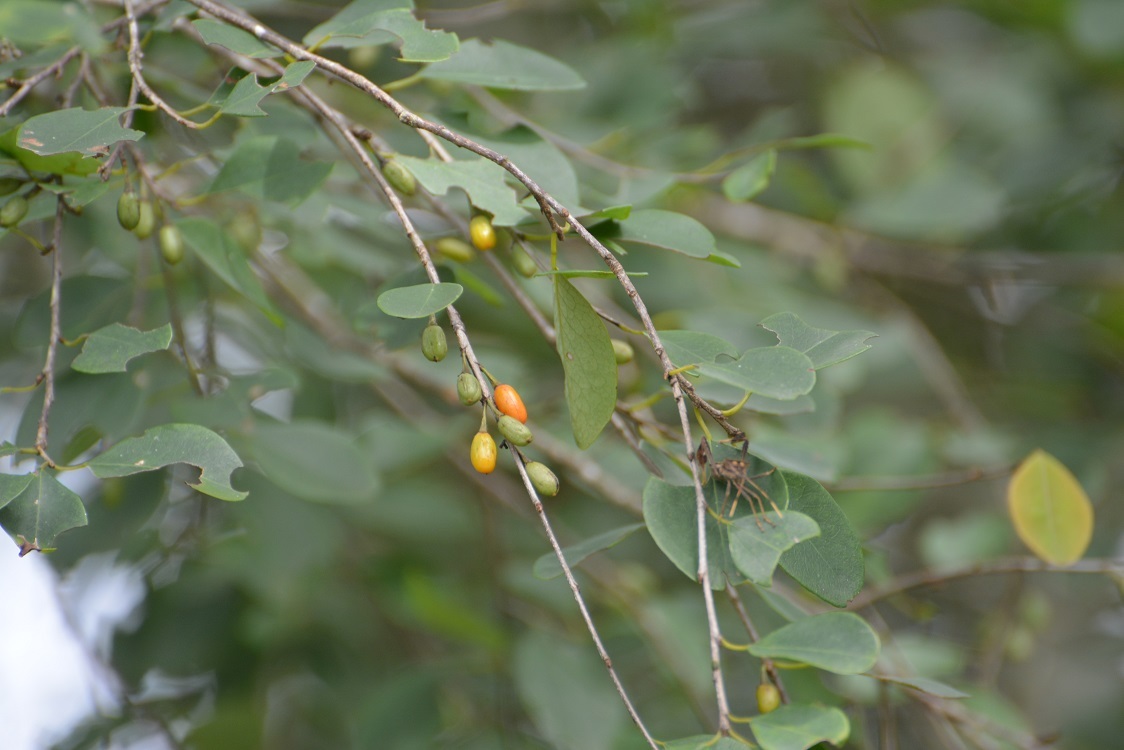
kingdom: Plantae
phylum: Tracheophyta
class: Magnoliopsida
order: Malpighiales
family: Erythroxylaceae
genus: Erythroxylum
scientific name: Erythroxylum guatemalense
